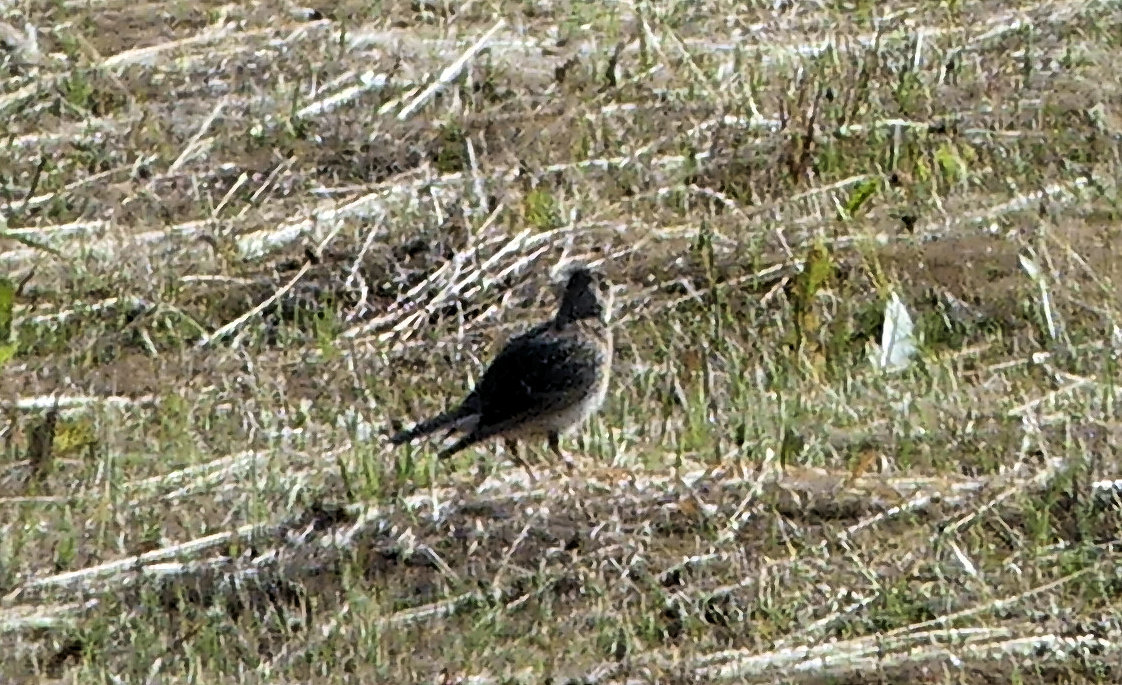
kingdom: Animalia
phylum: Chordata
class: Aves
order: Passeriformes
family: Alaudidae
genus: Alauda
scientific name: Alauda arvensis
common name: Eurasian skylark
